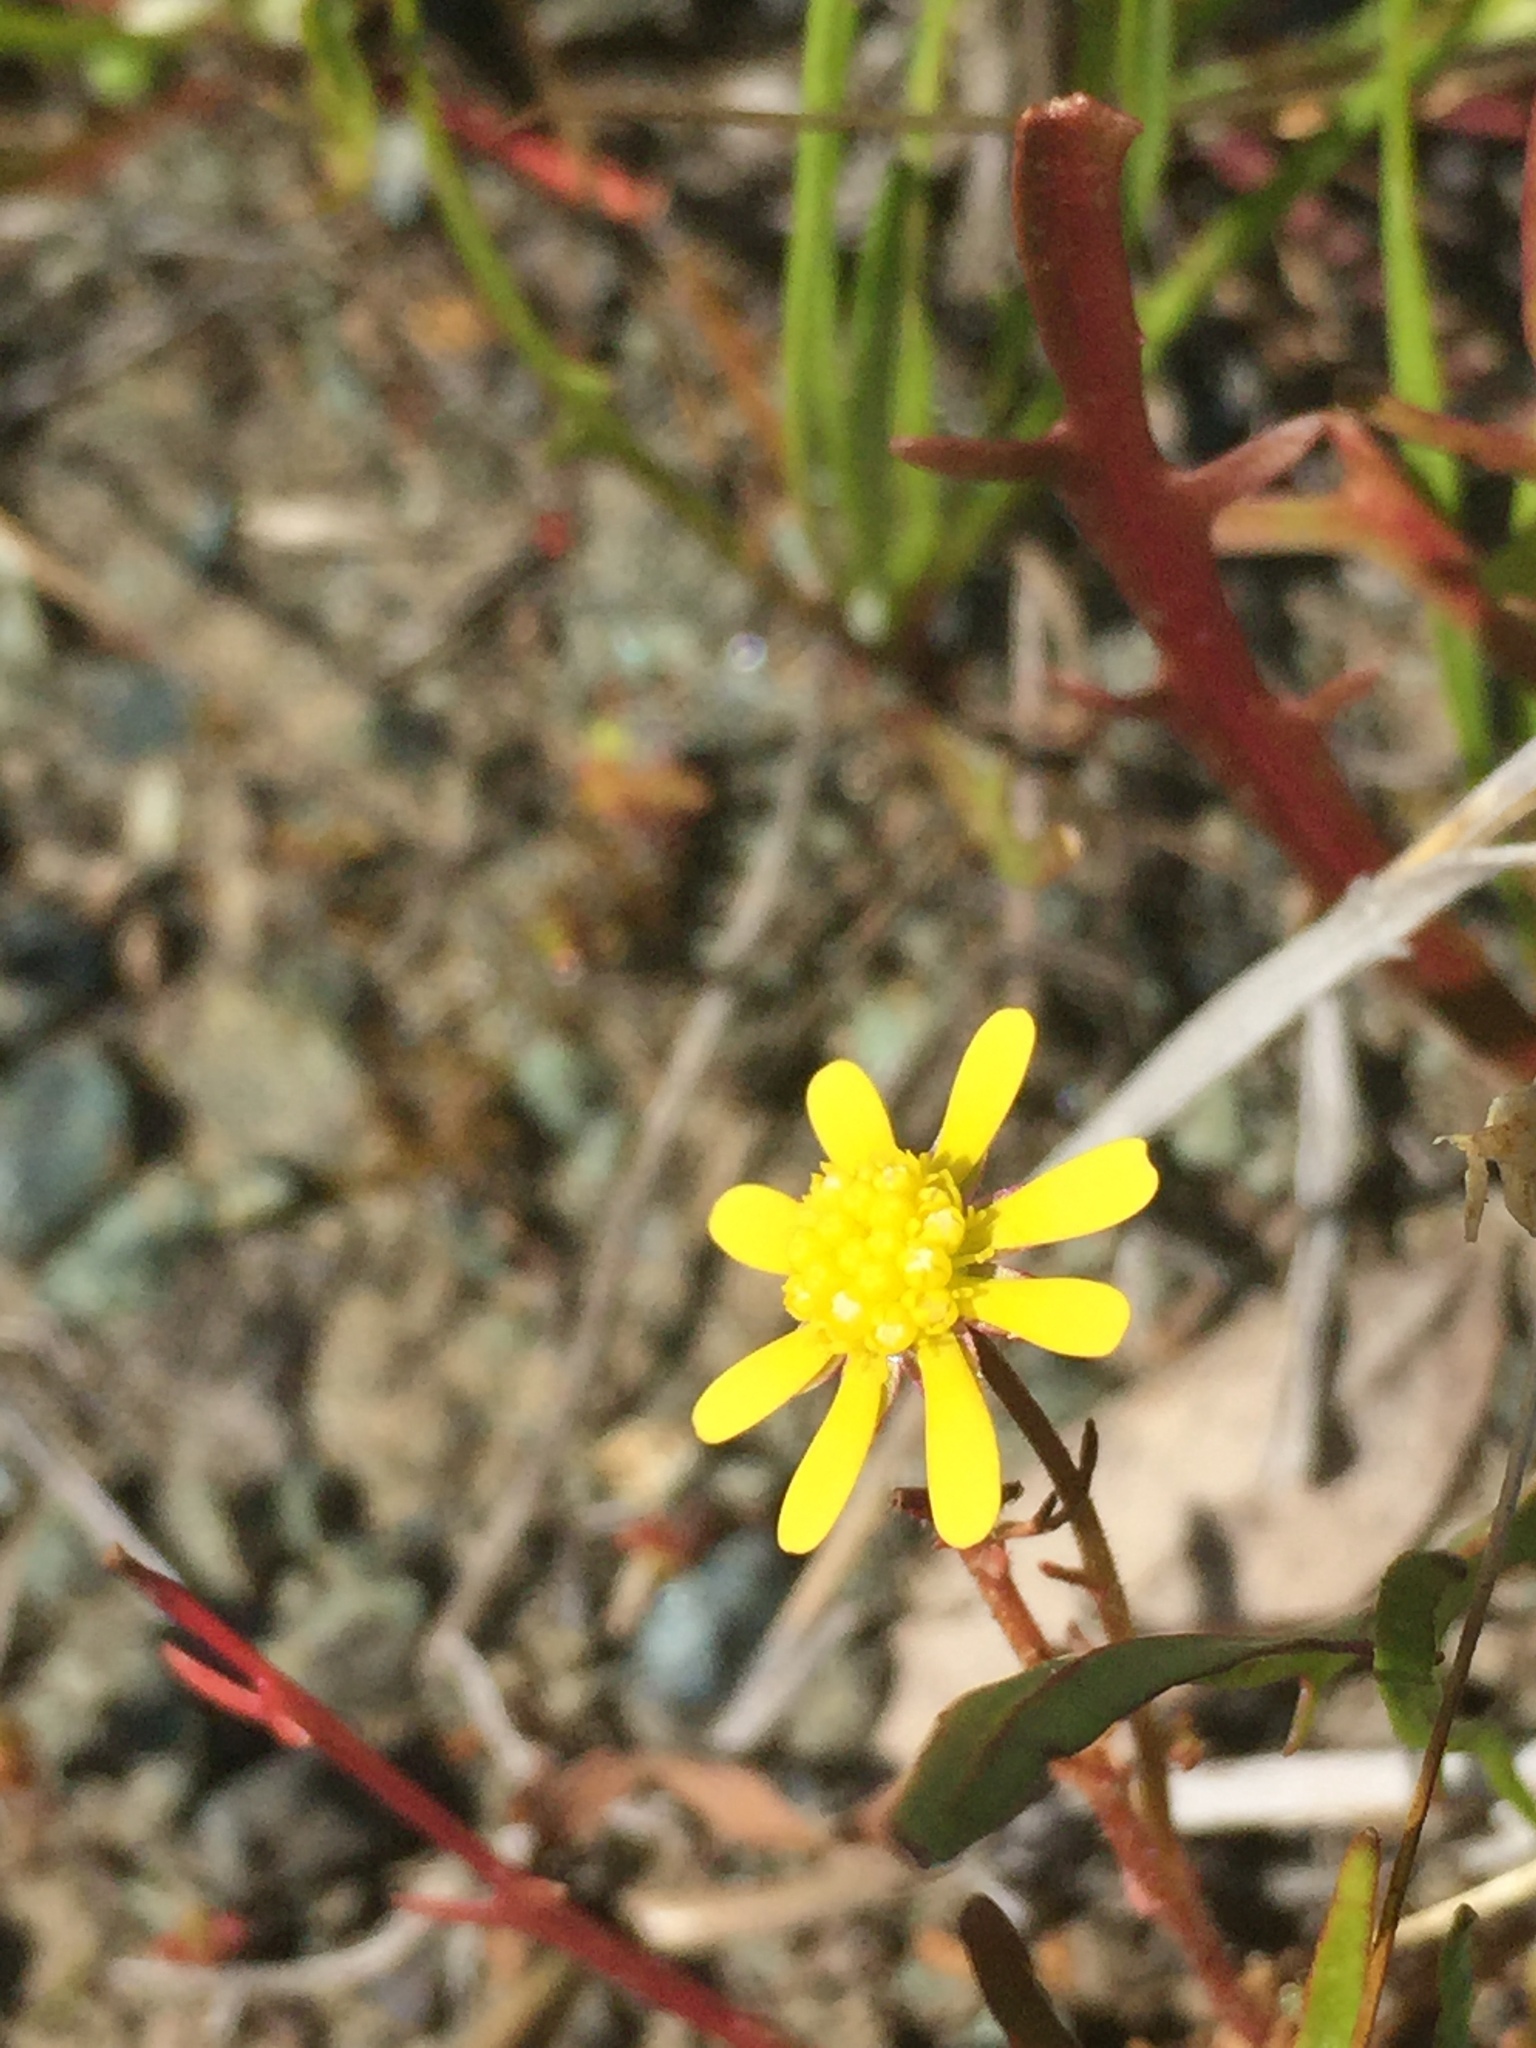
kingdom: Plantae
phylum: Tracheophyta
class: Magnoliopsida
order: Asterales
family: Asteraceae
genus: Blennosperma
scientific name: Blennosperma nanum
